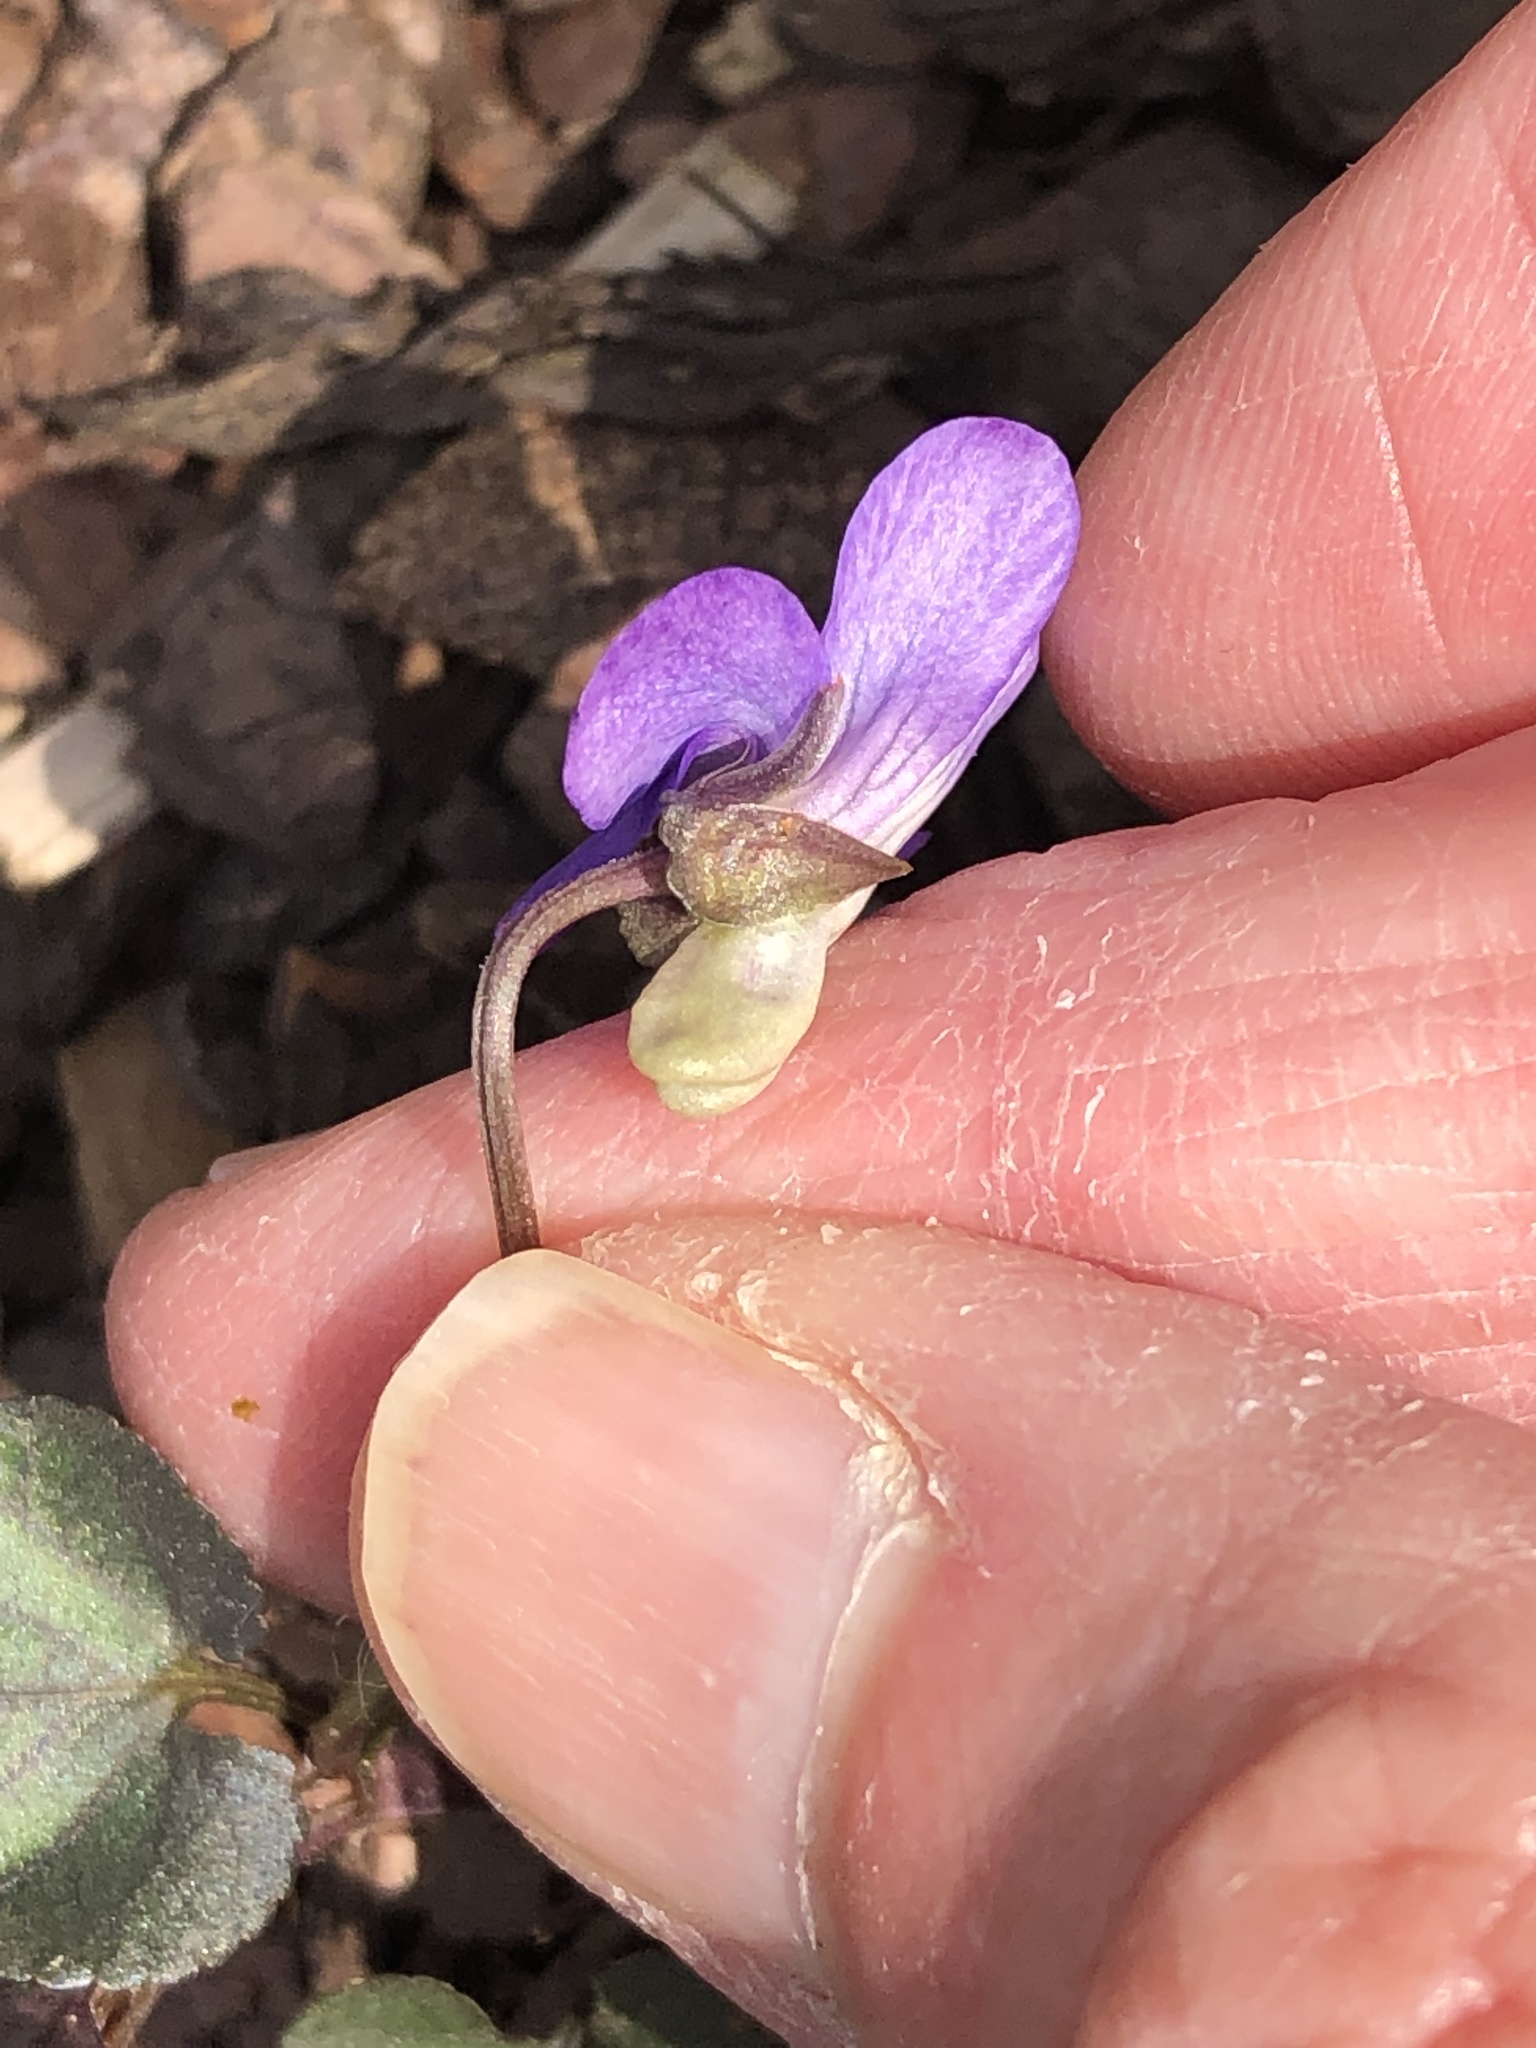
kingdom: Plantae
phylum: Tracheophyta
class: Magnoliopsida
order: Malpighiales
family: Violaceae
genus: Viola
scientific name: Viola riviniana
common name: Common dog-violet
